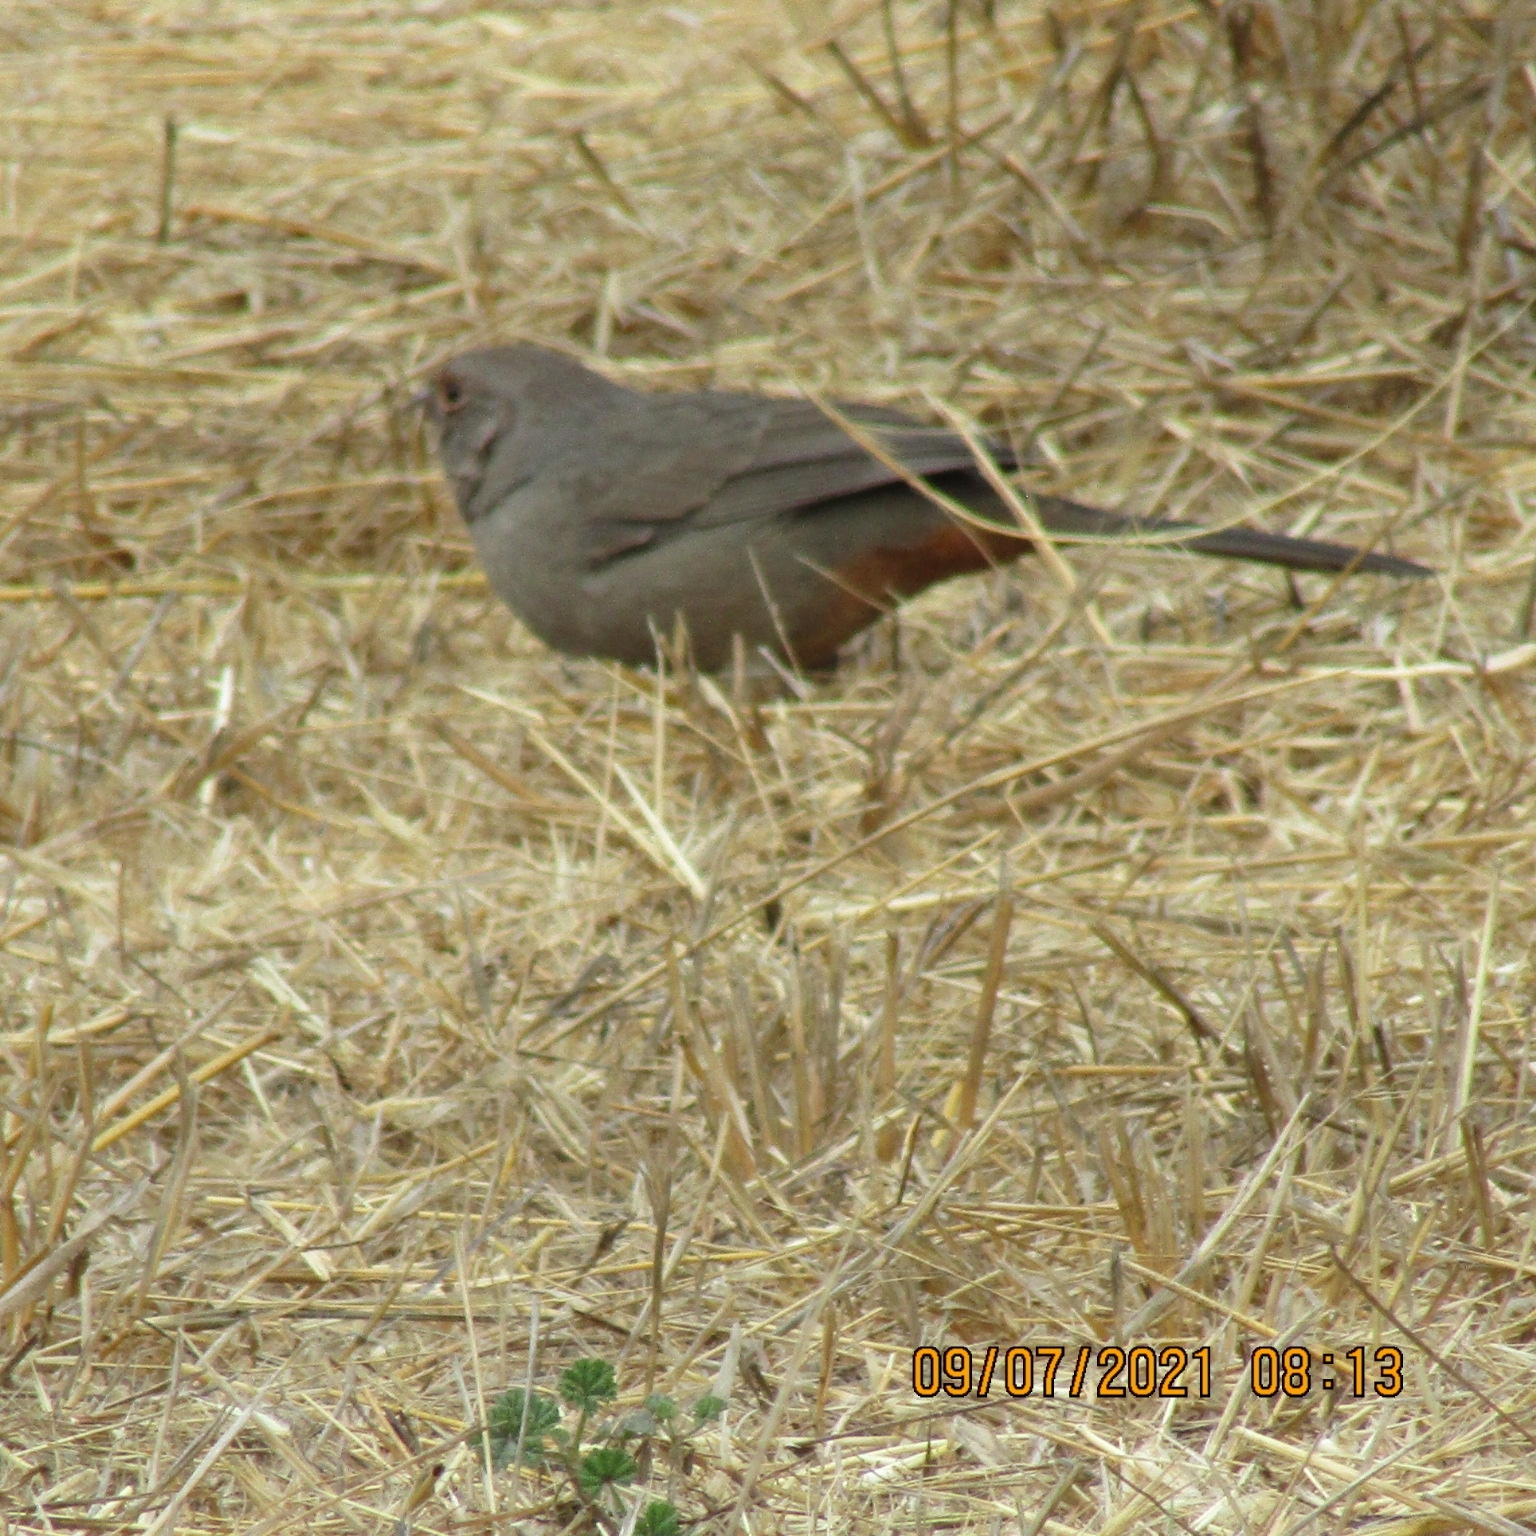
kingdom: Animalia
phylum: Chordata
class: Aves
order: Passeriformes
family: Passerellidae
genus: Melozone
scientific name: Melozone crissalis
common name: California towhee
